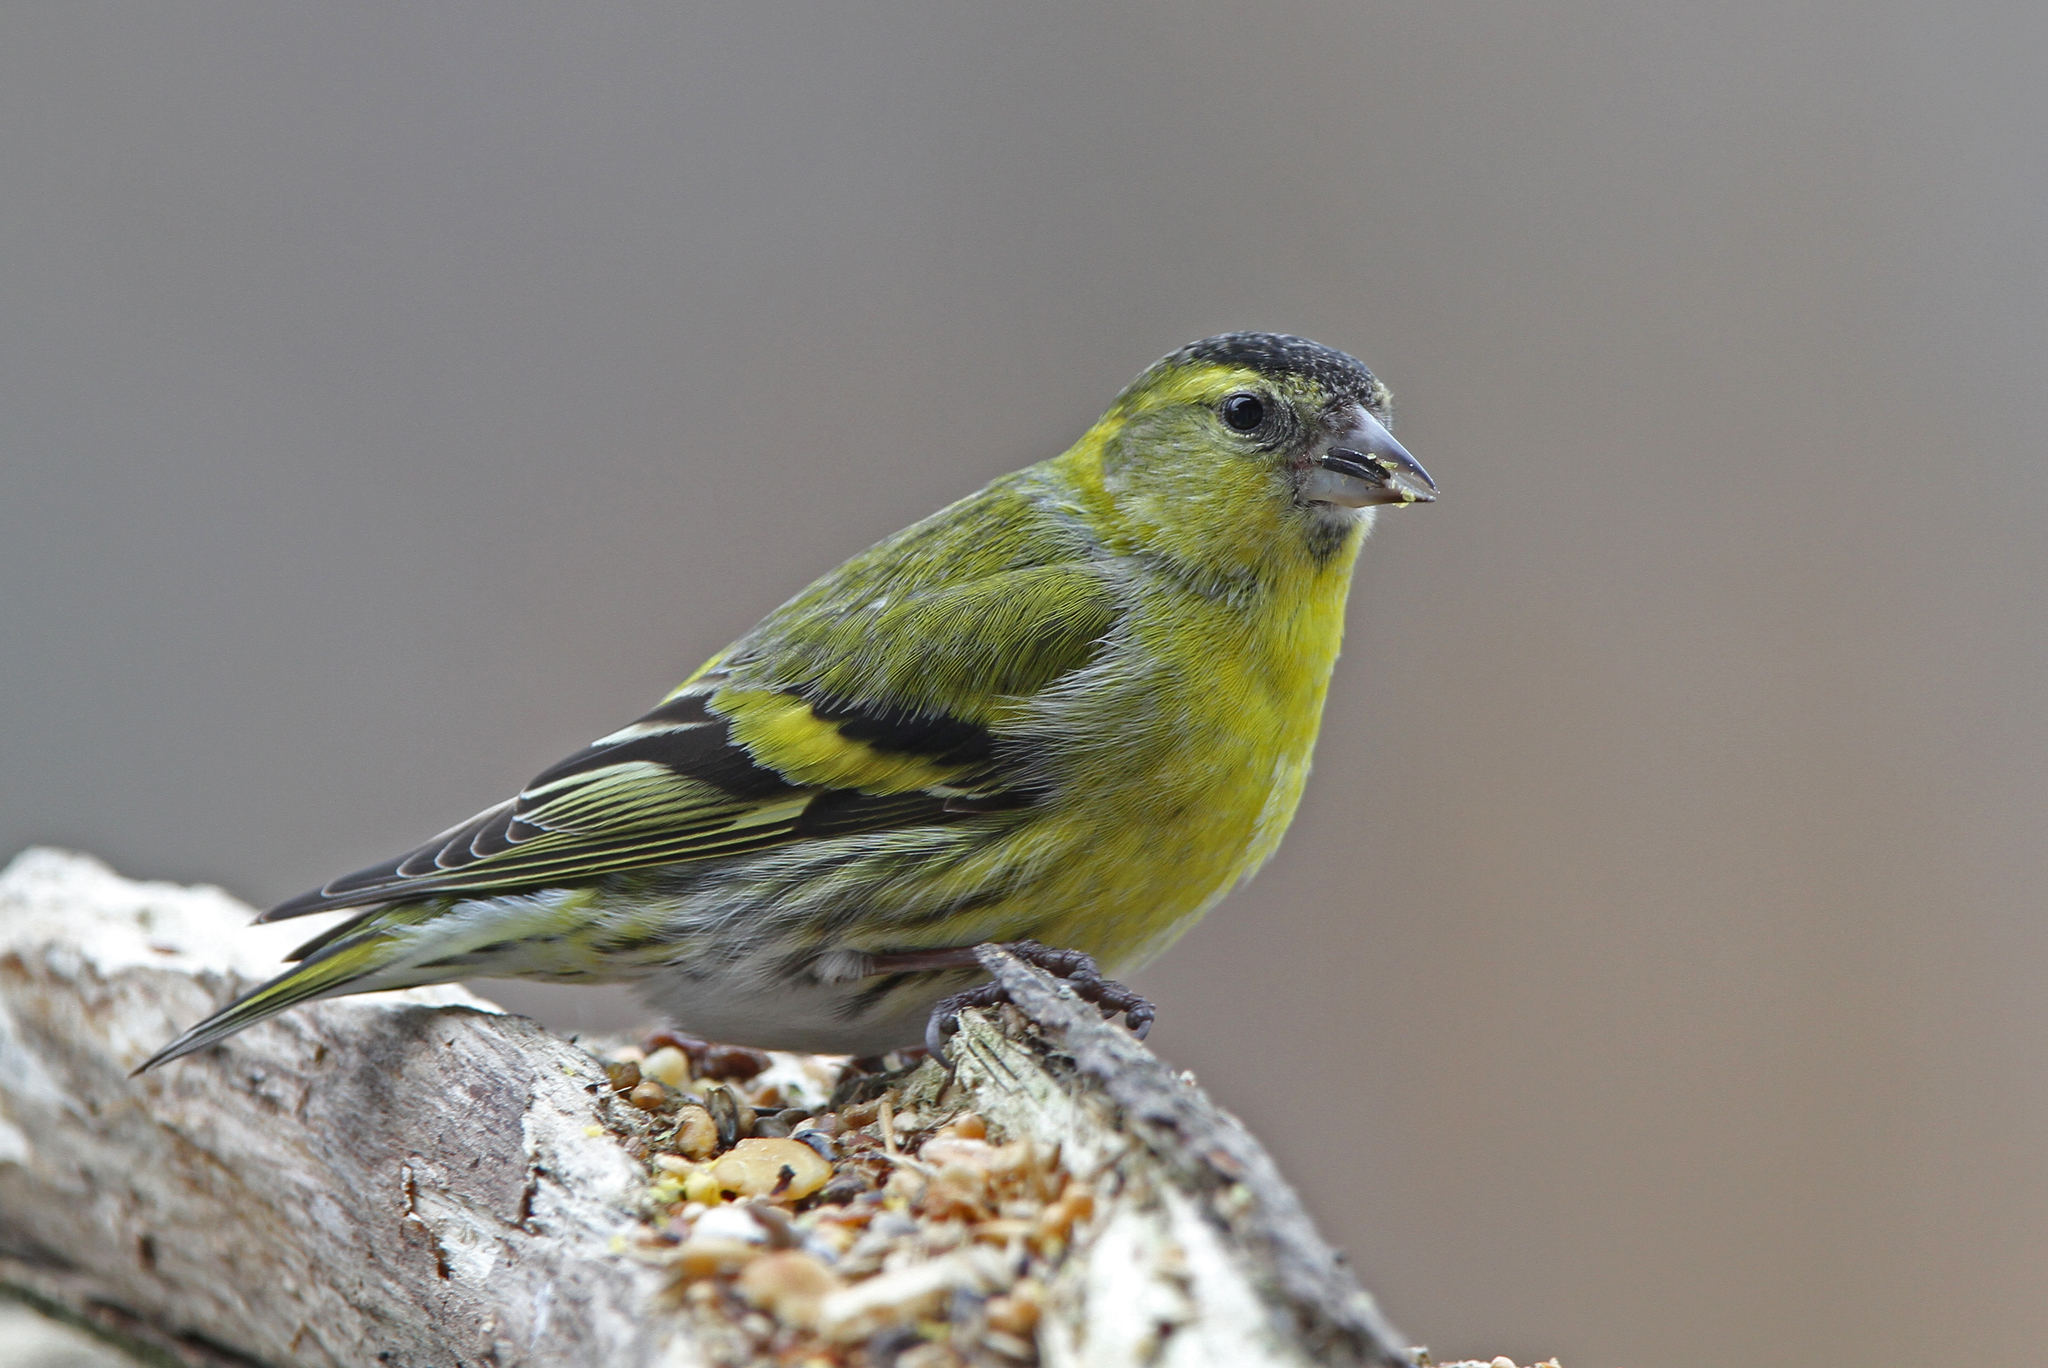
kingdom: Animalia
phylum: Chordata
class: Aves
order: Passeriformes
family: Fringillidae
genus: Spinus
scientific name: Spinus spinus
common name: Eurasian siskin
